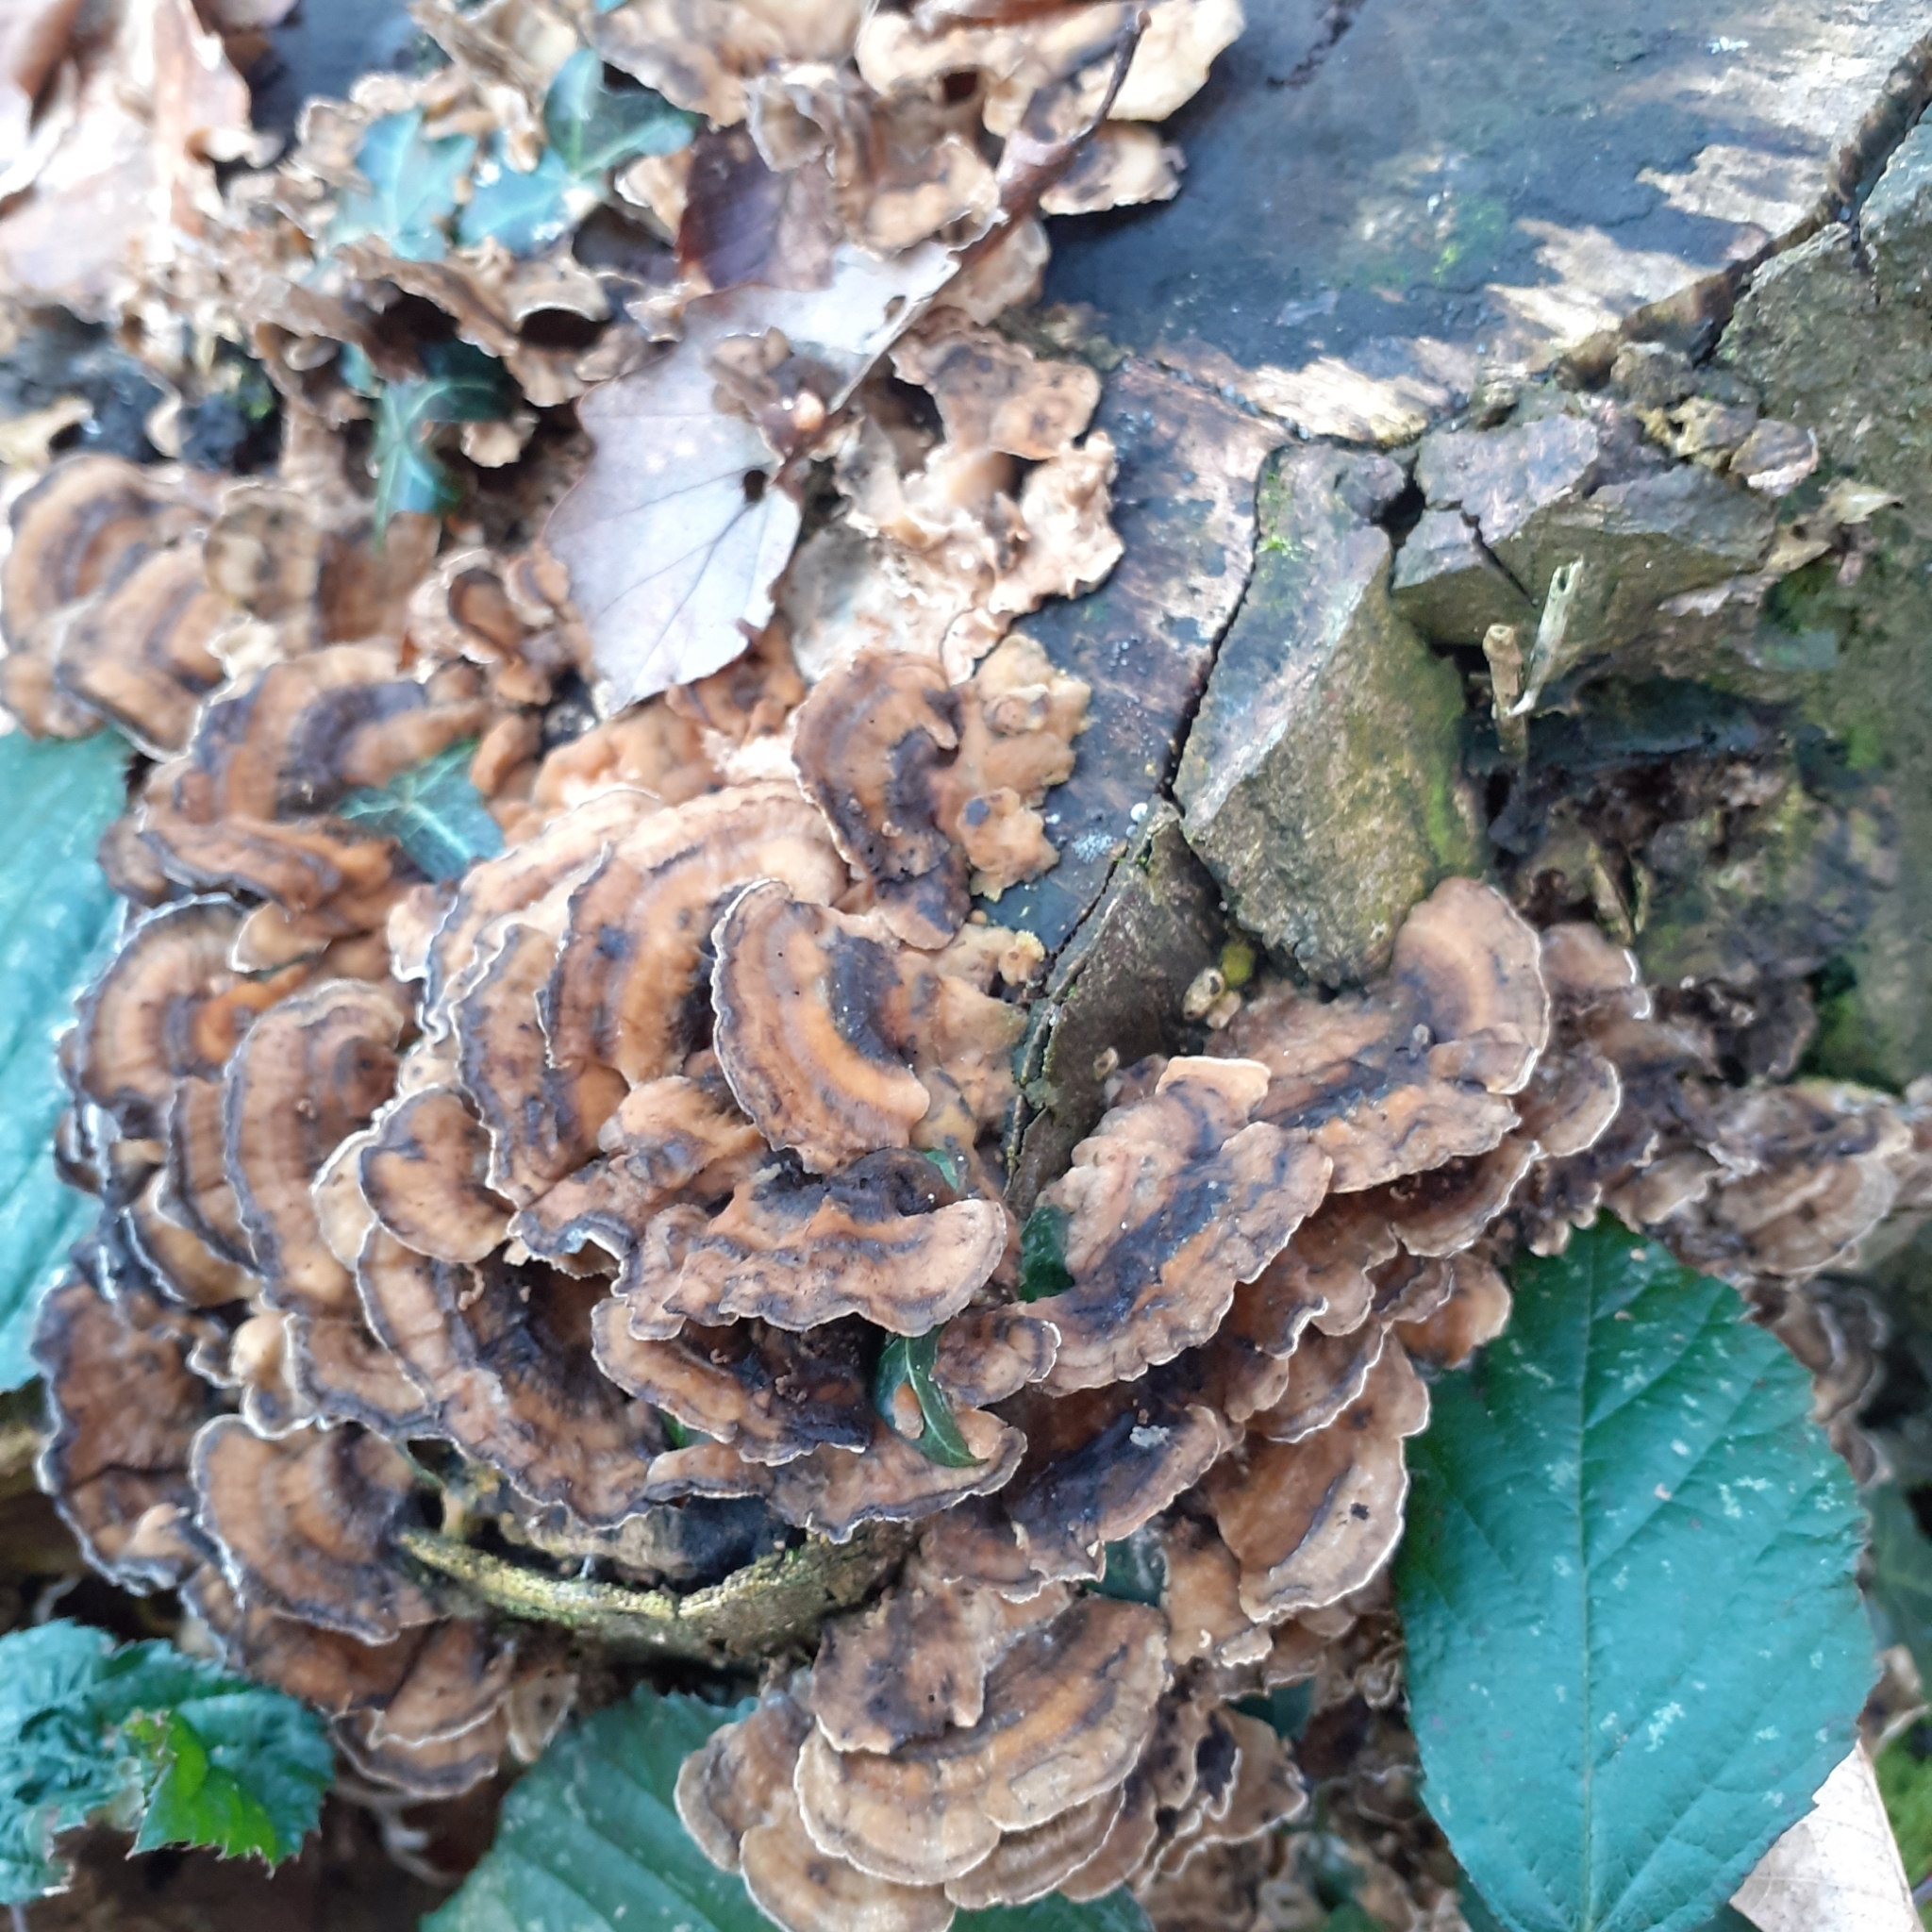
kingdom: Fungi
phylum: Basidiomycota
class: Agaricomycetes
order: Polyporales
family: Phanerochaetaceae
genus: Bjerkandera
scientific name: Bjerkandera adusta
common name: Smoky bracket
